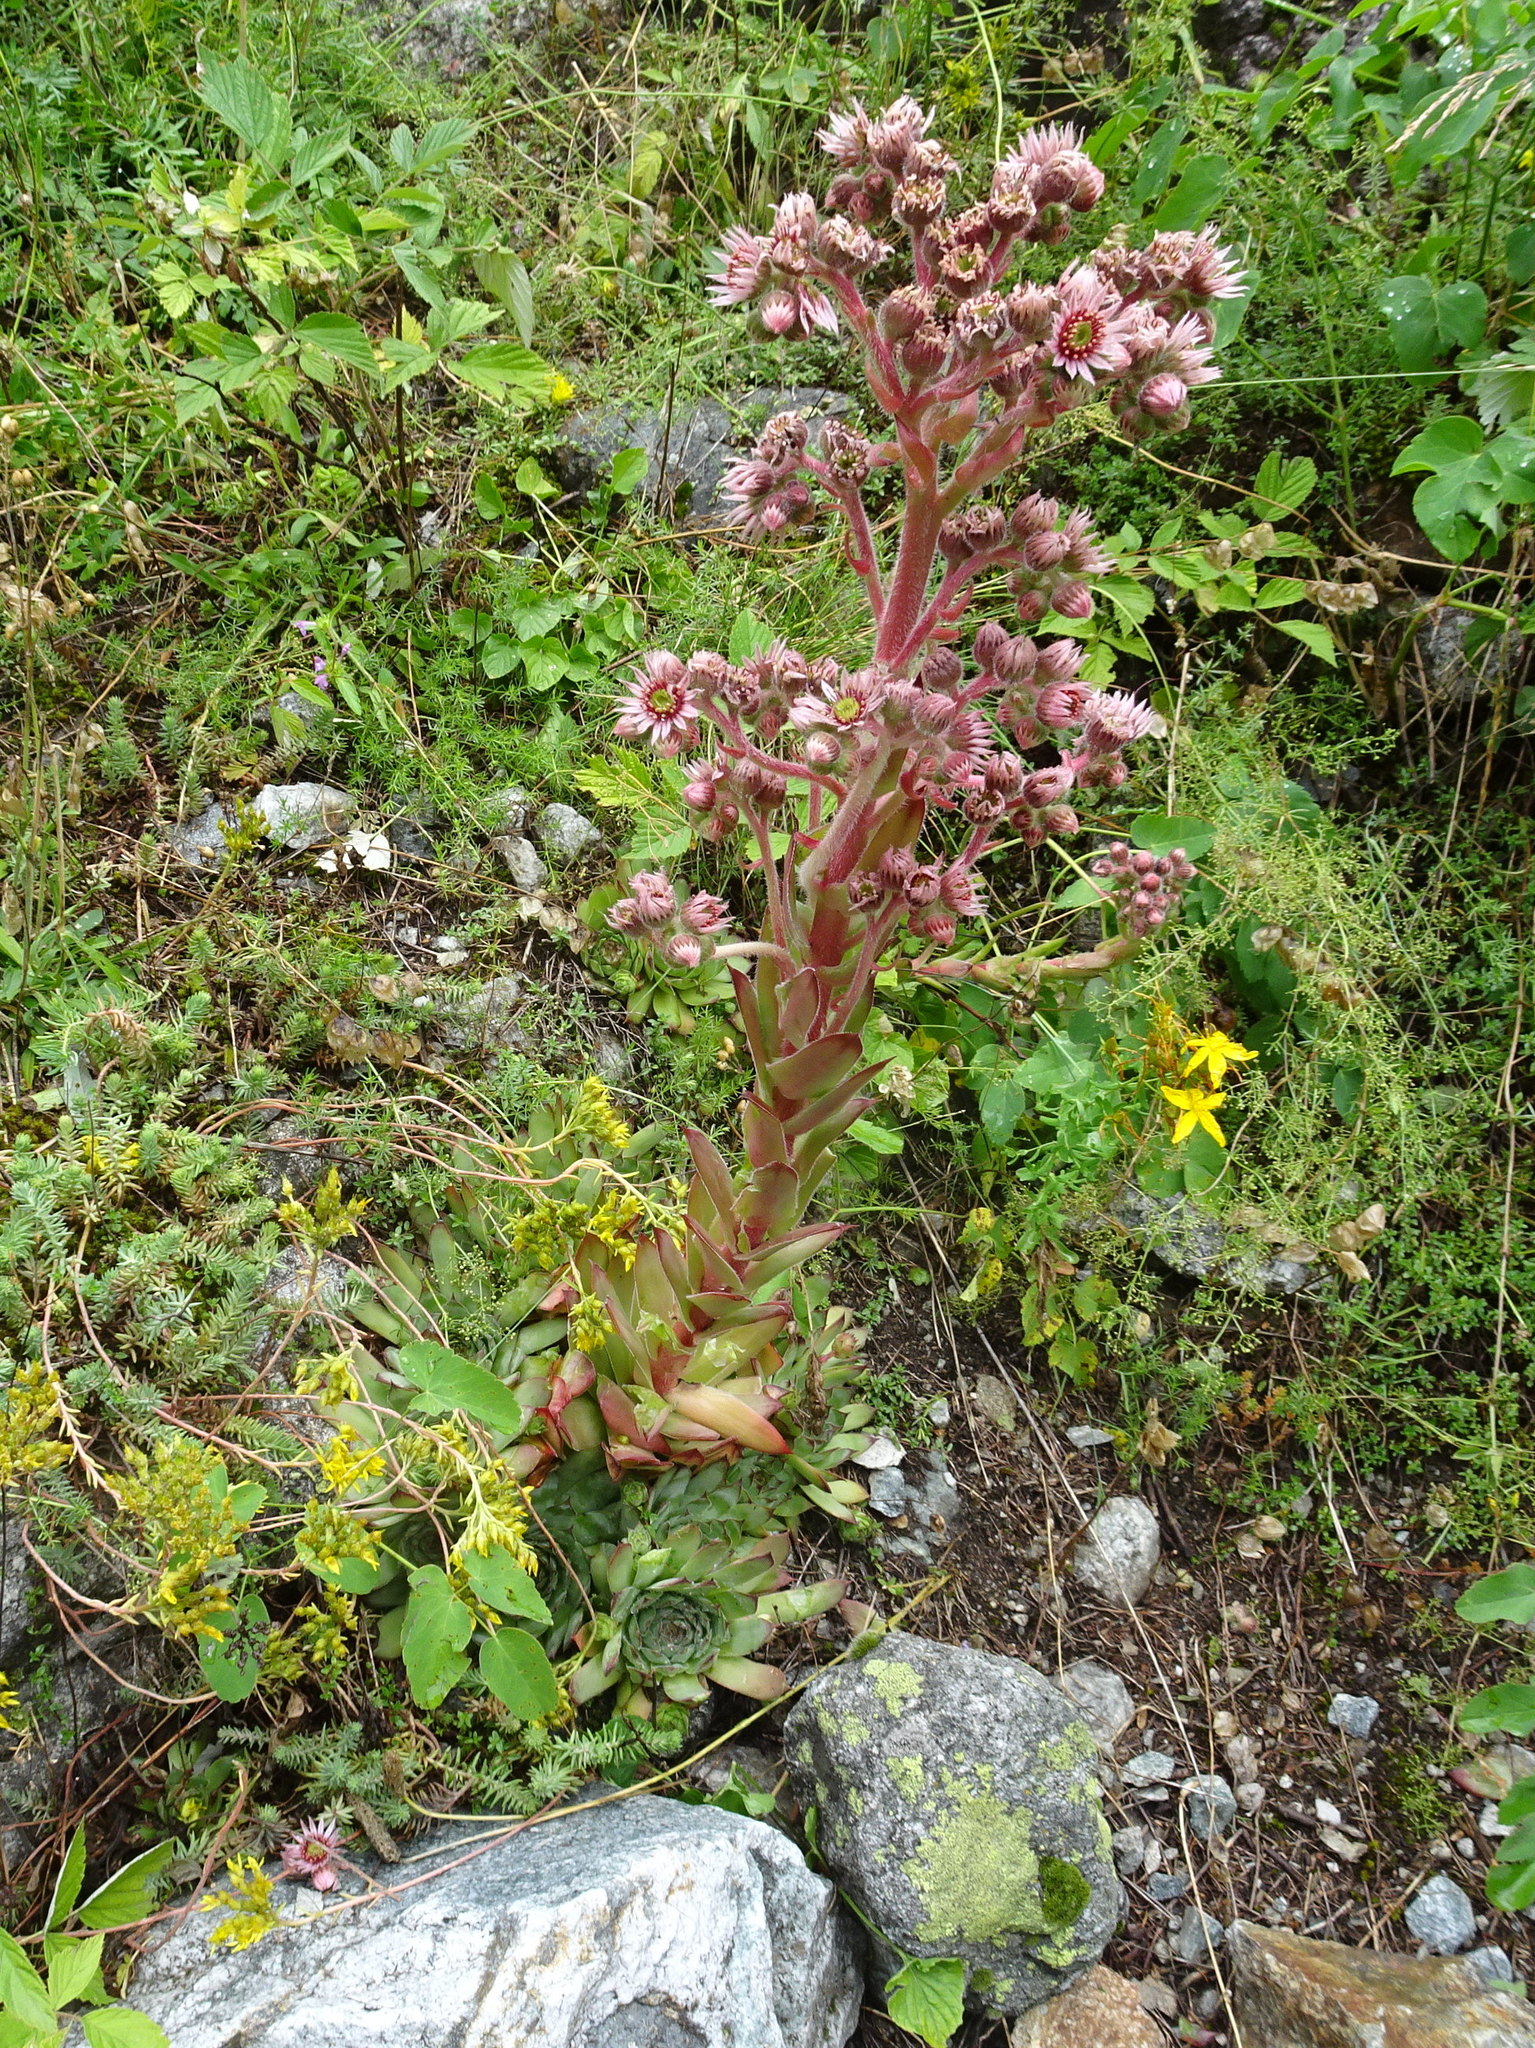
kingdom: Plantae
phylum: Tracheophyta
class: Magnoliopsida
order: Saxifragales
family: Crassulaceae
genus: Sempervivum
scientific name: Sempervivum tectorum
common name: House-leek
